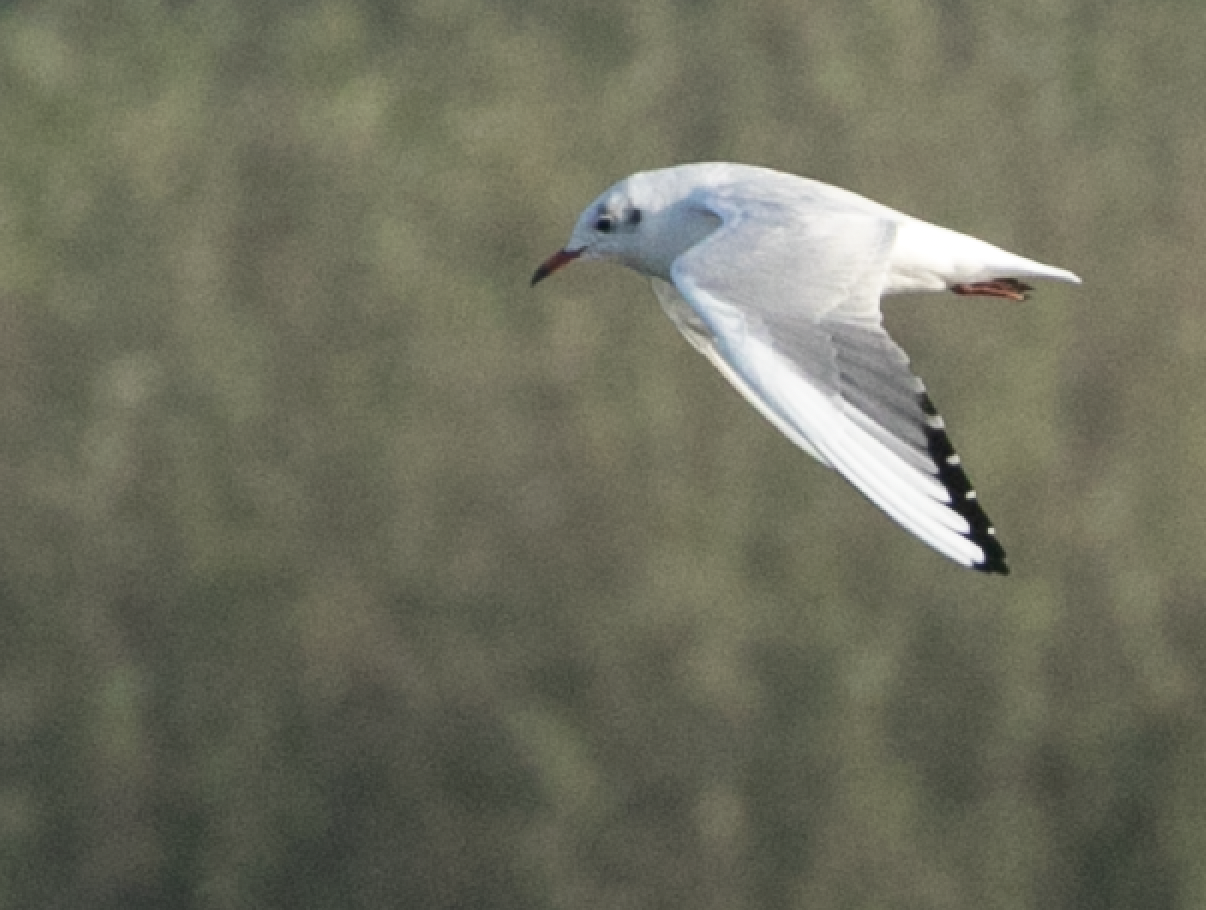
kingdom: Animalia
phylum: Chordata
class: Aves
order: Charadriiformes
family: Laridae
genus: Chroicocephalus
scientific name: Chroicocephalus ridibundus
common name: Black-headed gull
